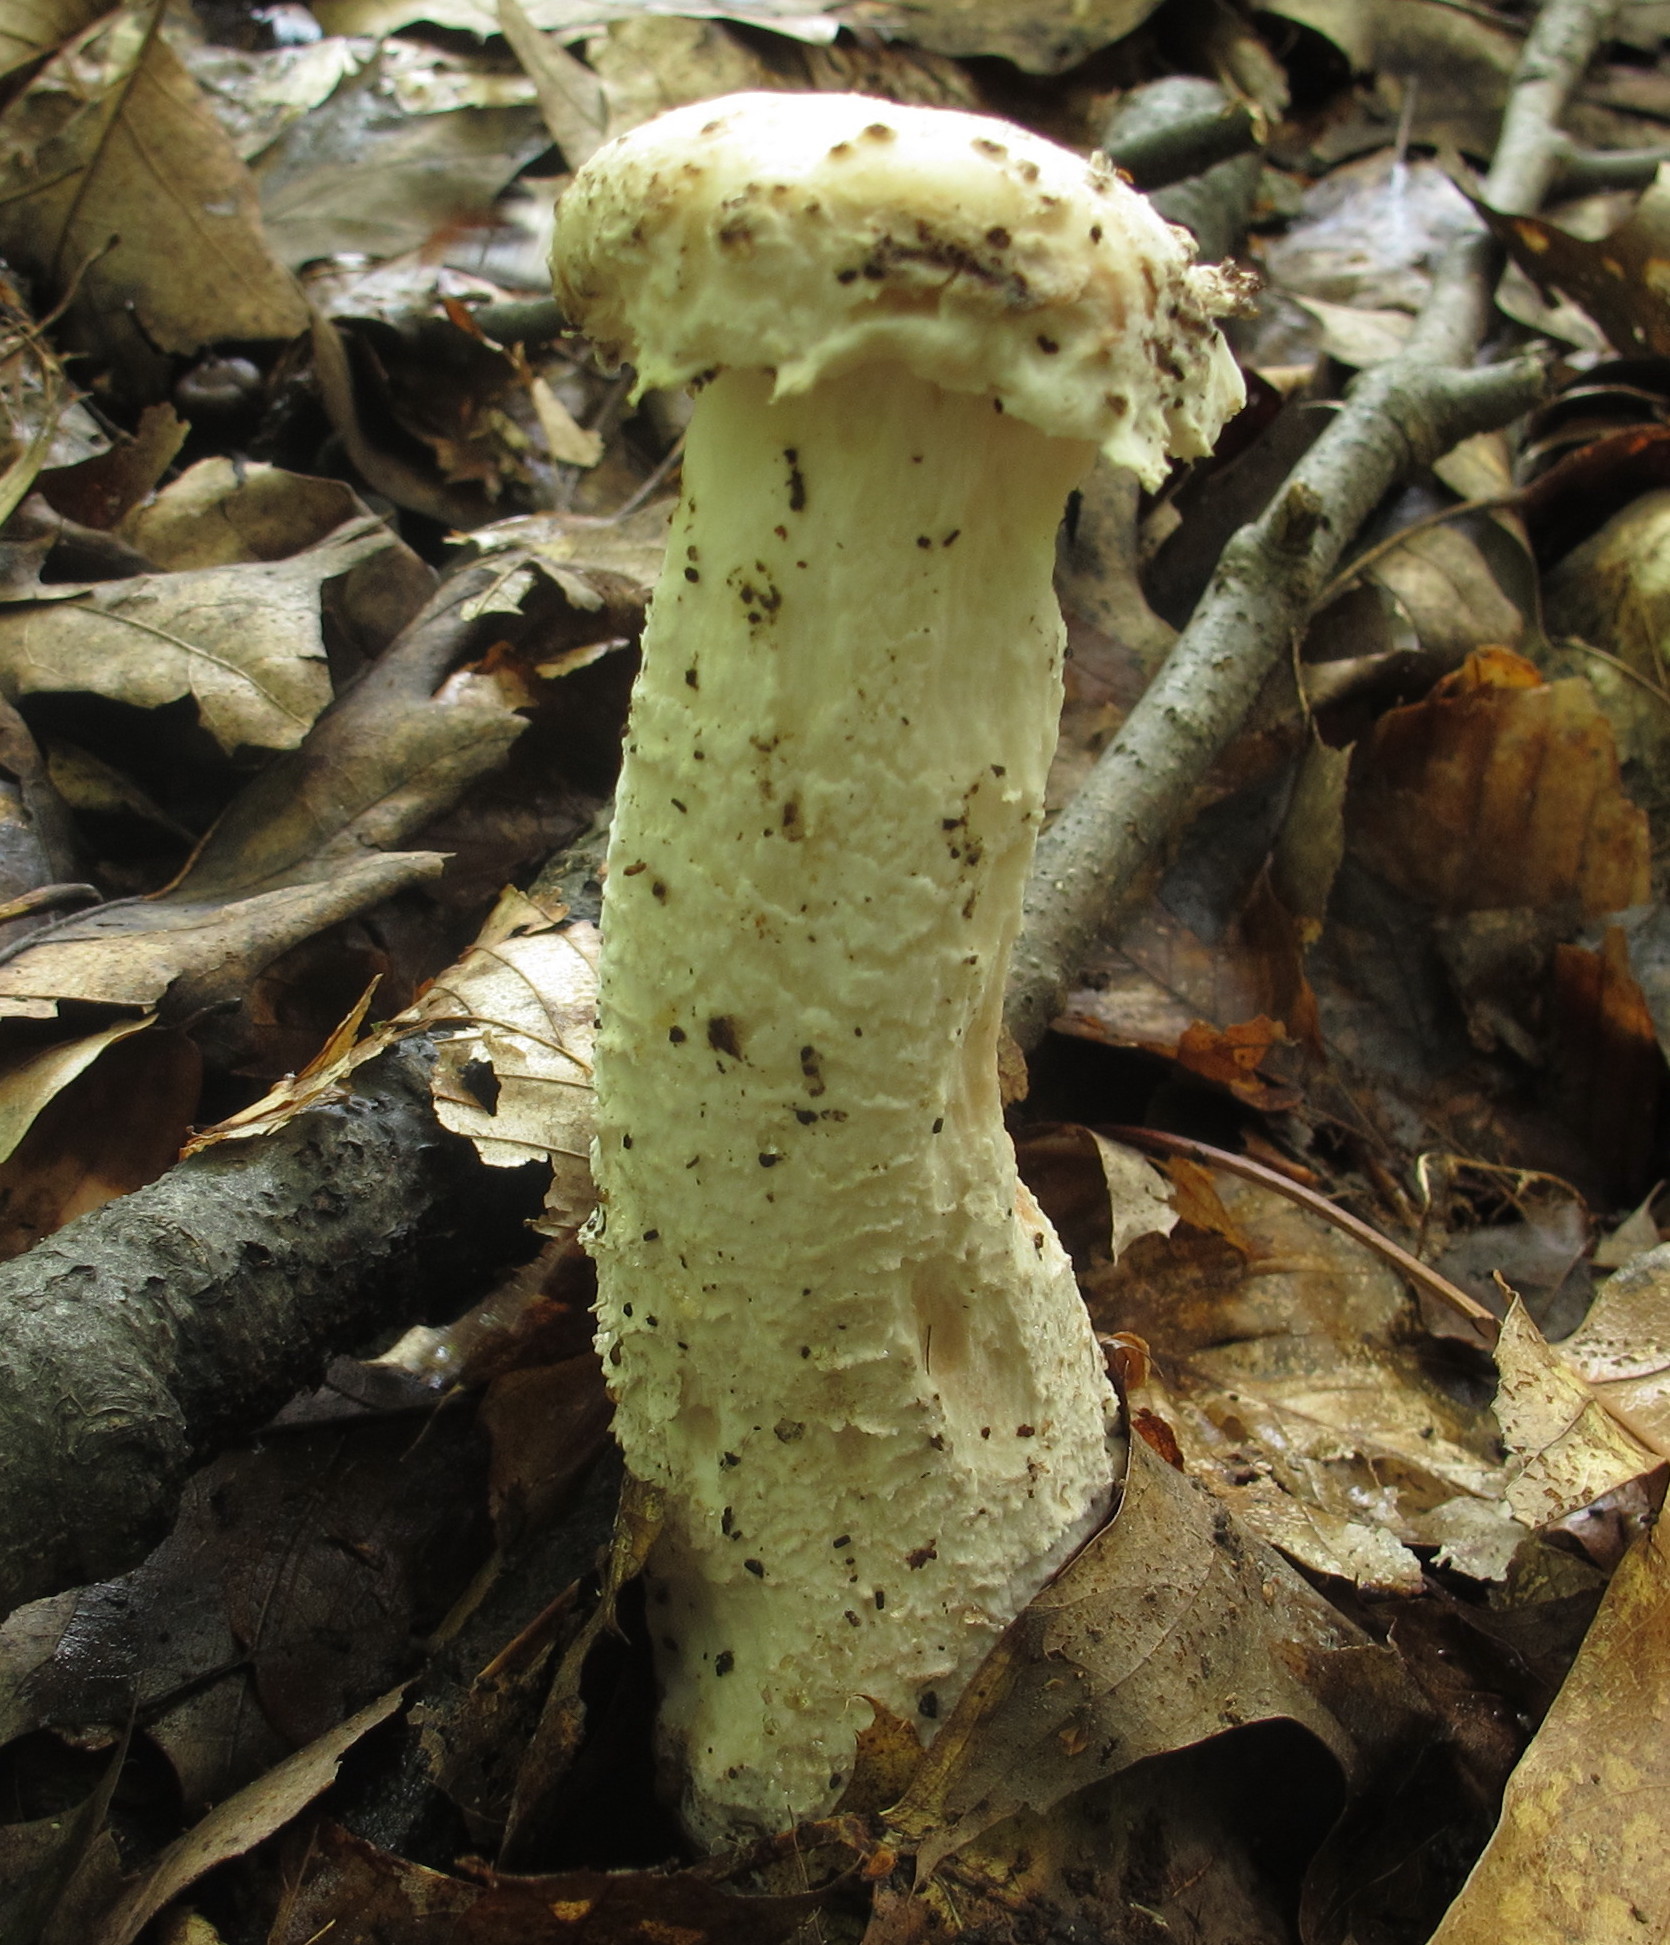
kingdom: Fungi
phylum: Ascomycota
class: Sordariomycetes
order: Hypocreales
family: Hypocreaceae
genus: Hypomyces
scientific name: Hypomyces hyalinus
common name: Amanita mold
